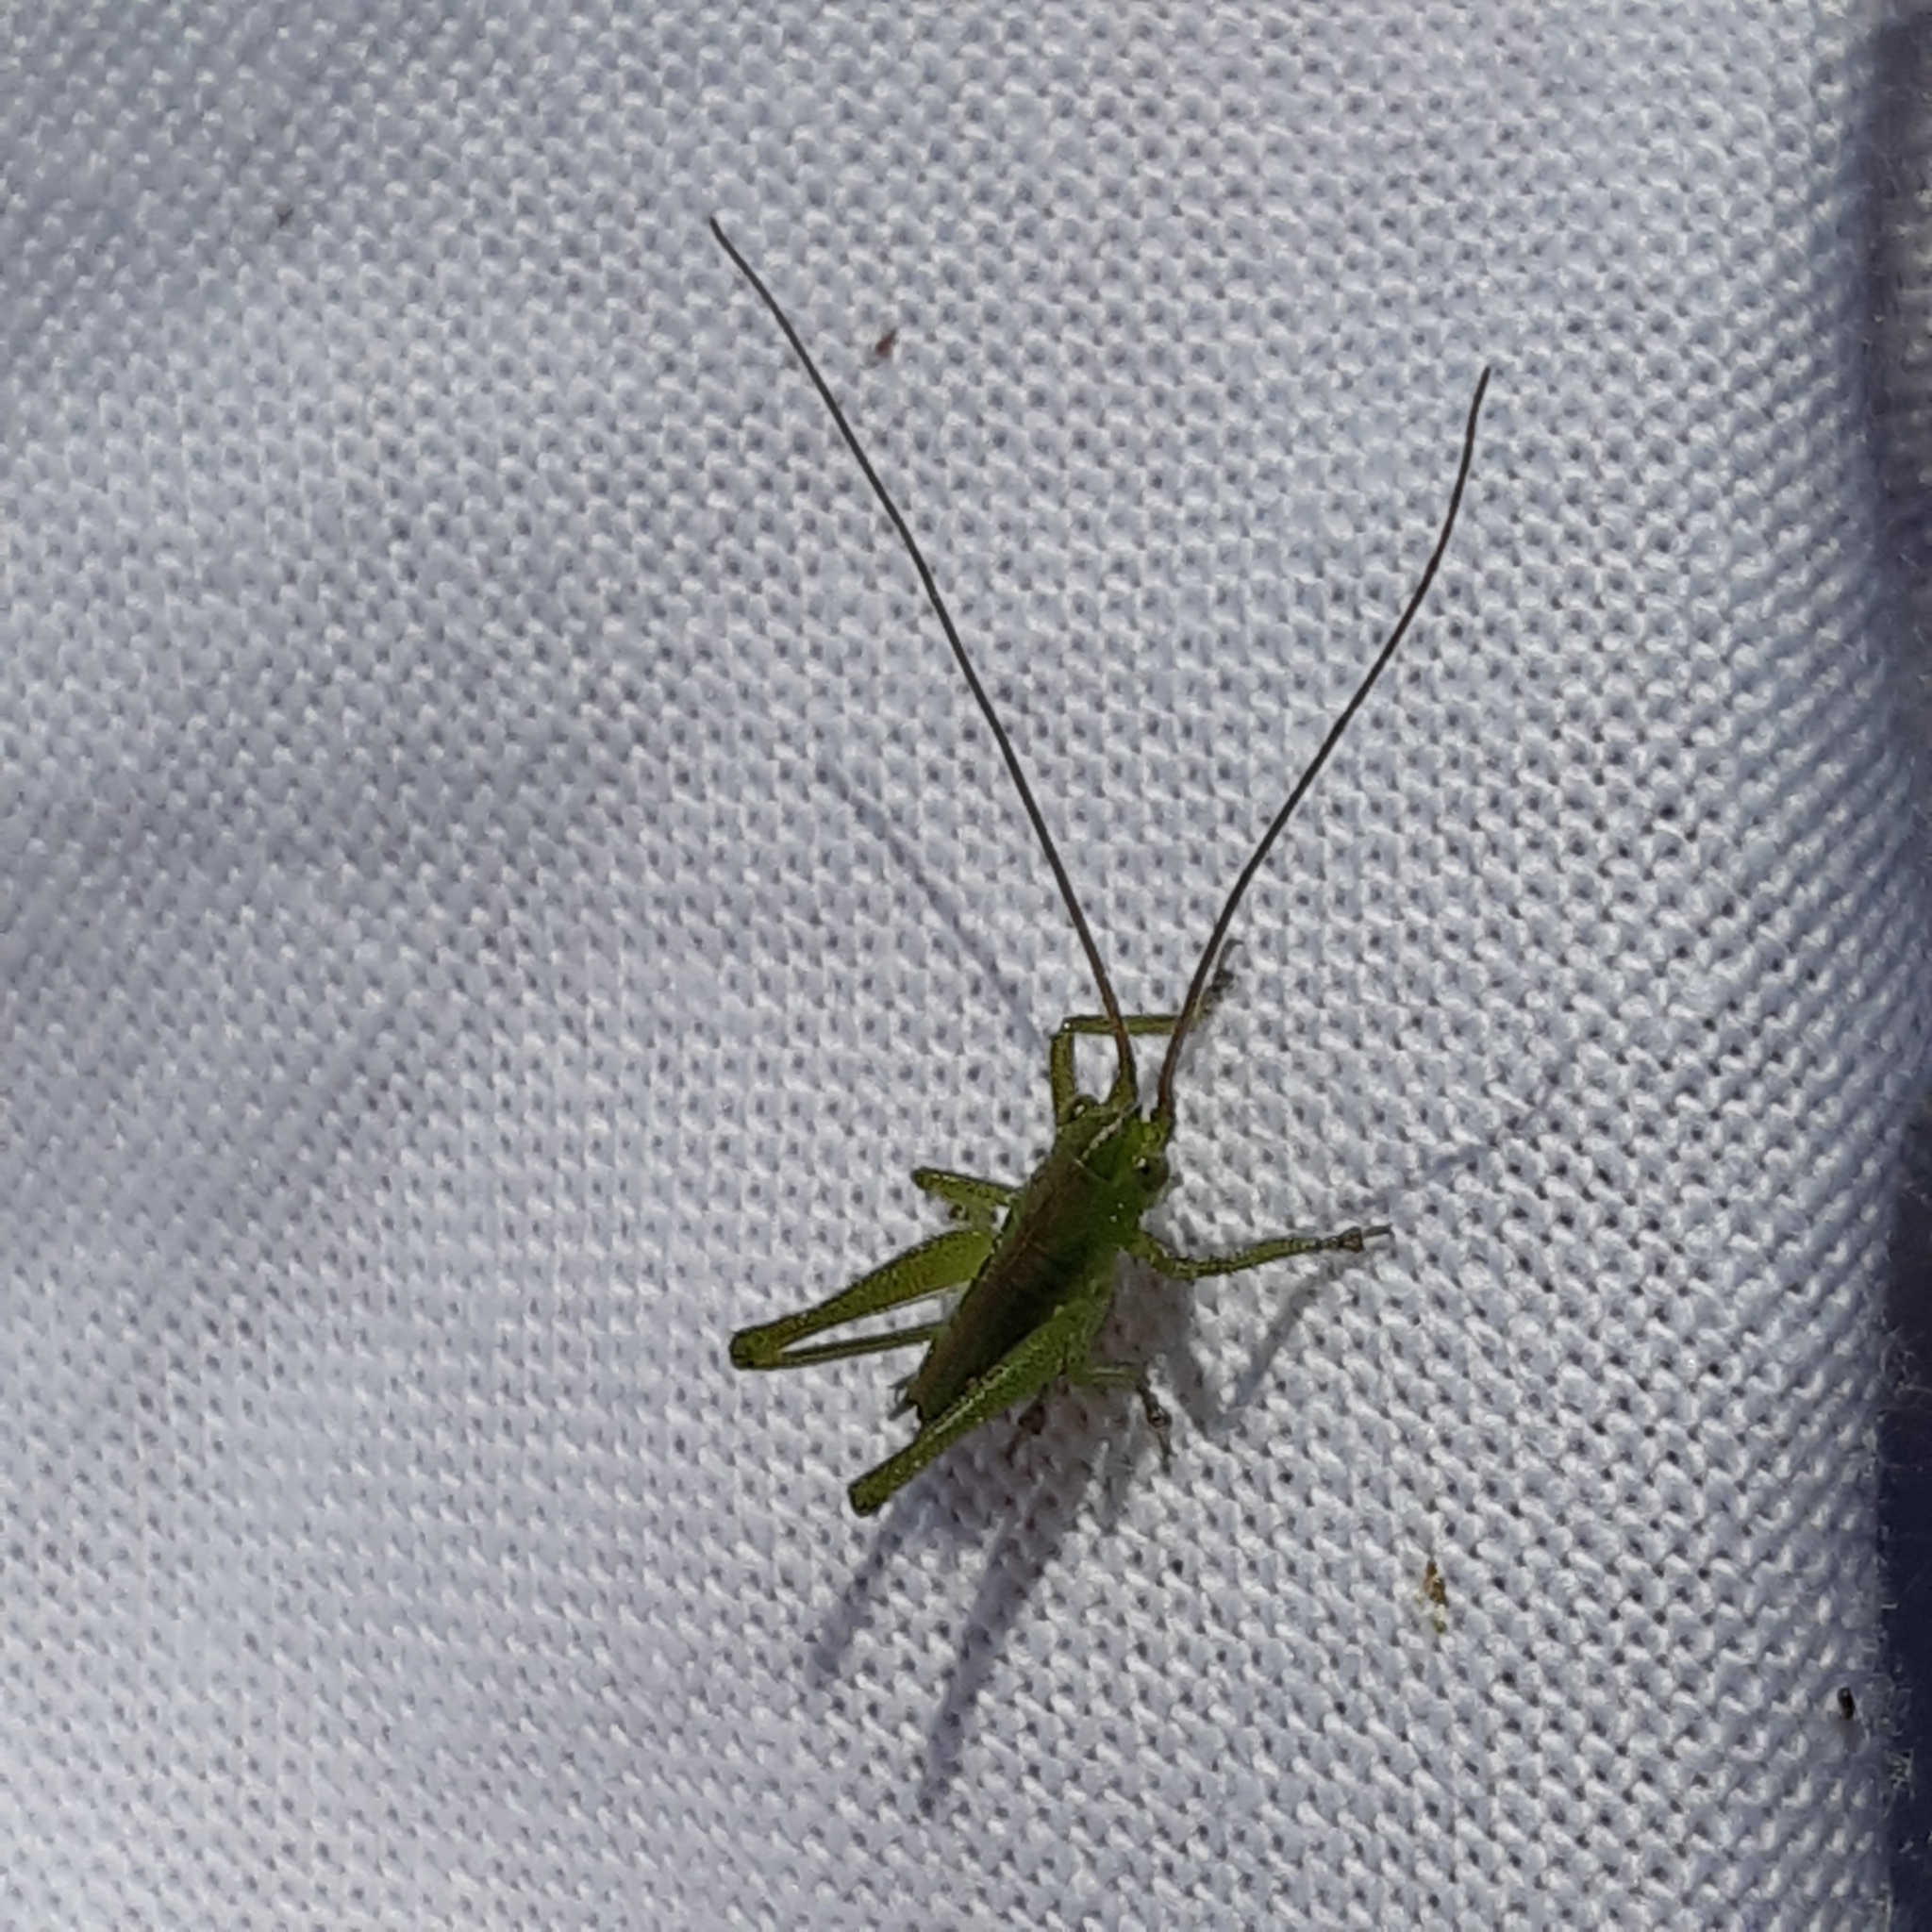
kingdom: Animalia
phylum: Arthropoda
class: Insecta
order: Orthoptera
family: Tettigoniidae
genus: Tettigonia
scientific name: Tettigonia viridissima
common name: Great green bush-cricket
